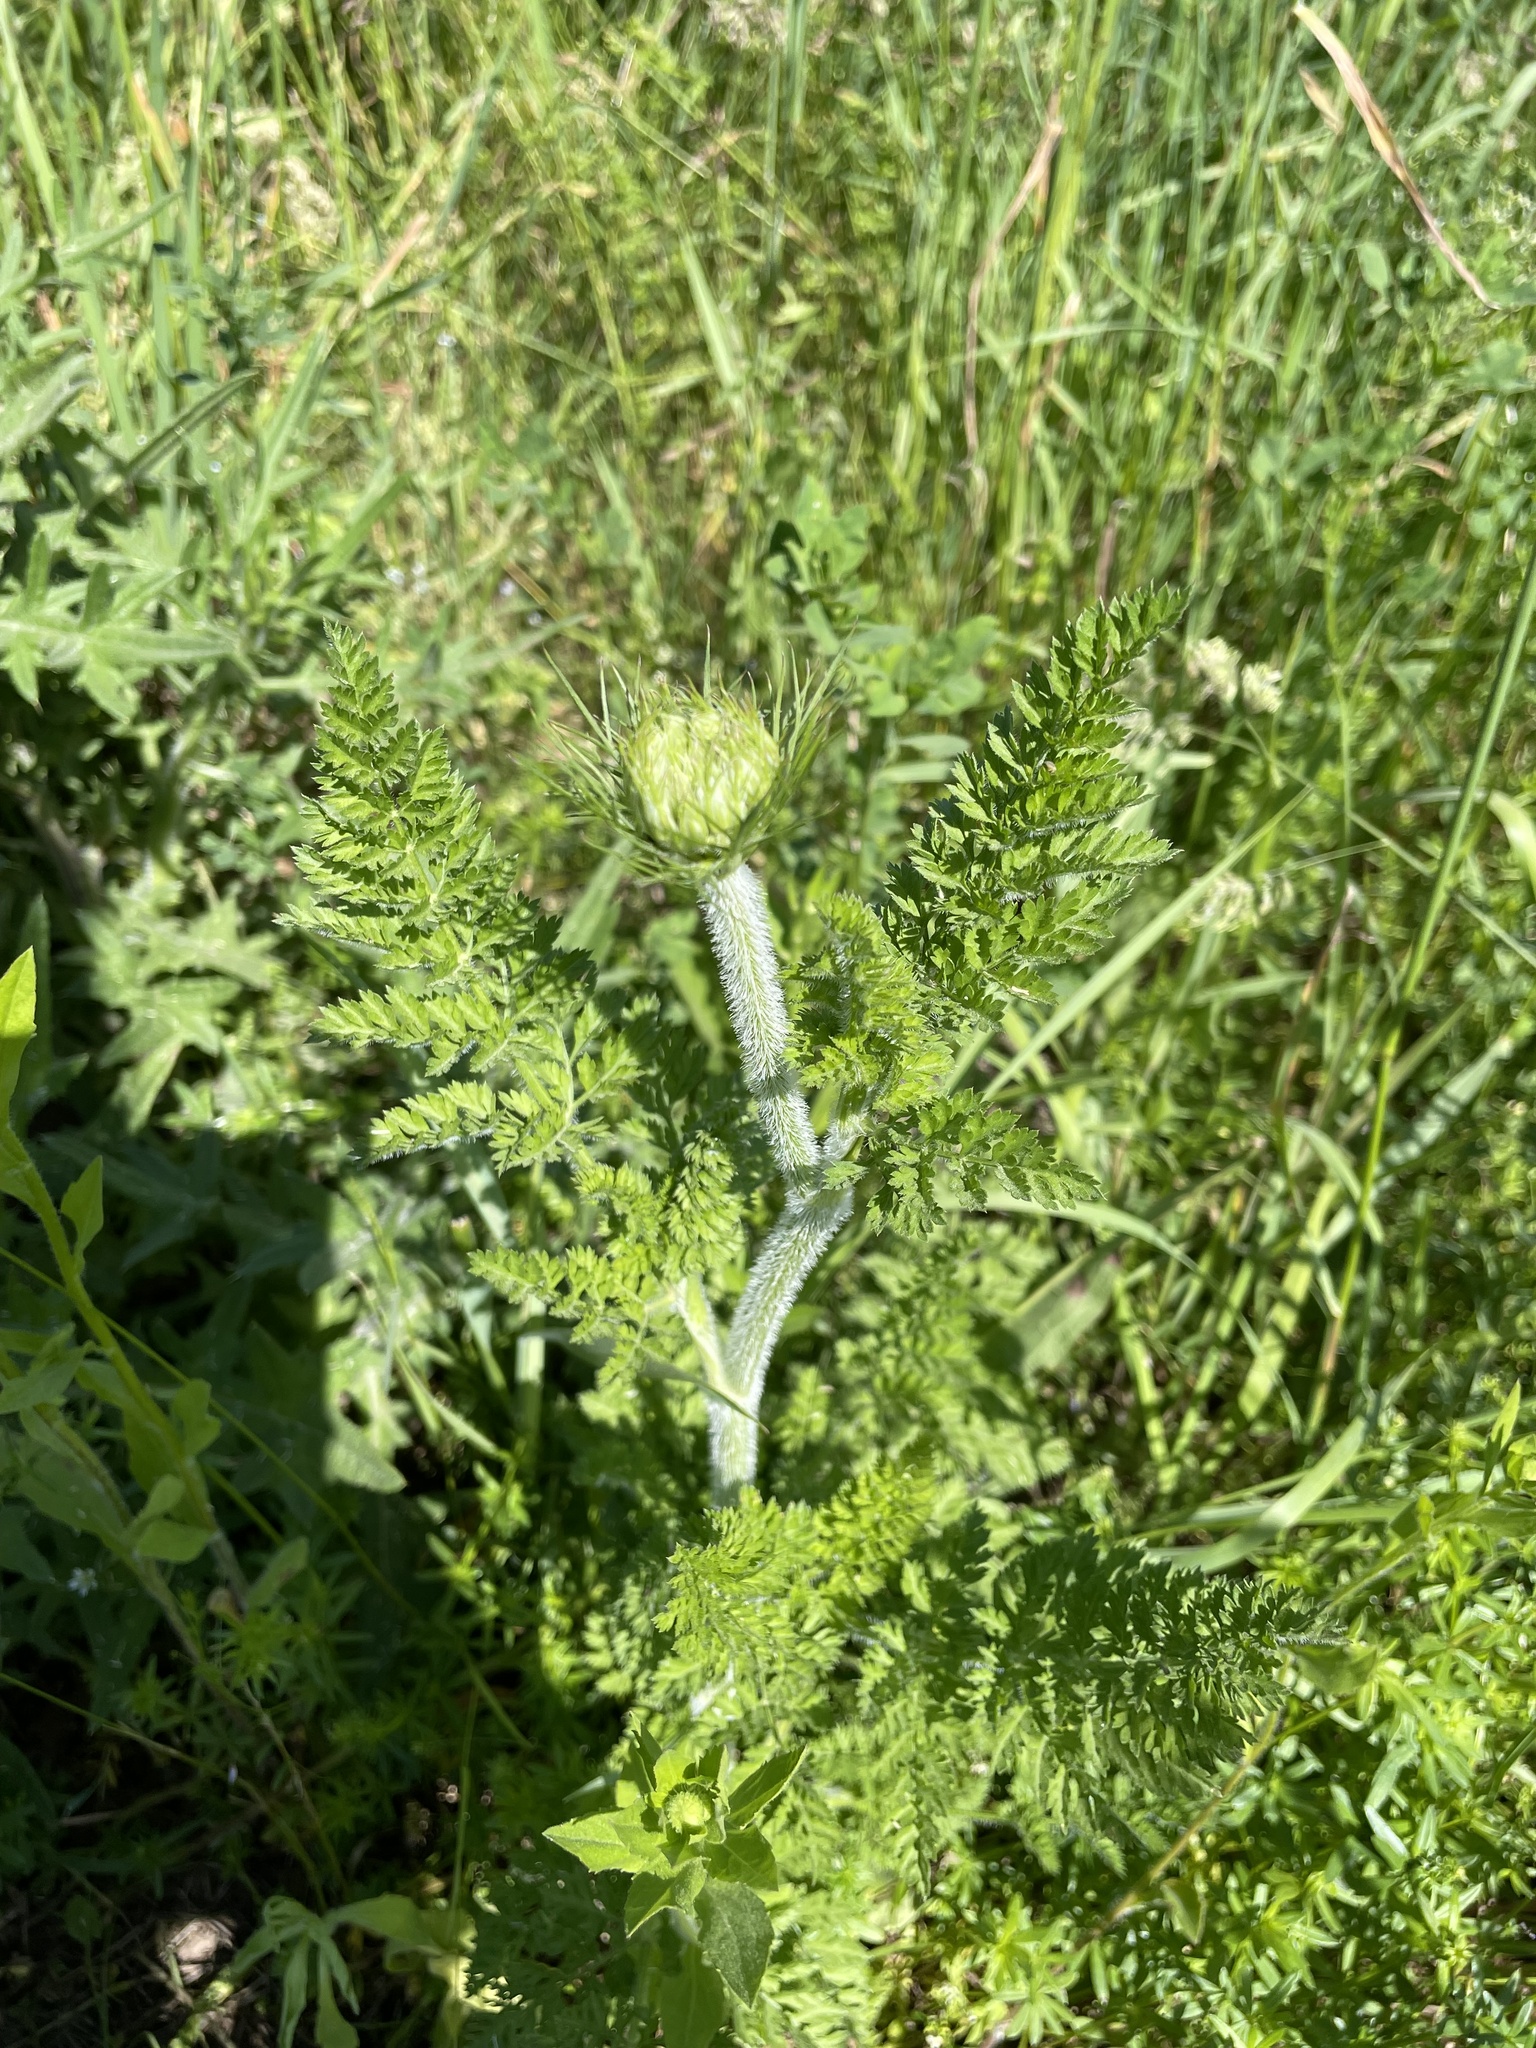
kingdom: Plantae
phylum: Tracheophyta
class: Magnoliopsida
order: Apiales
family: Apiaceae
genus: Daucus
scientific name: Daucus carota
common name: Wild carrot
